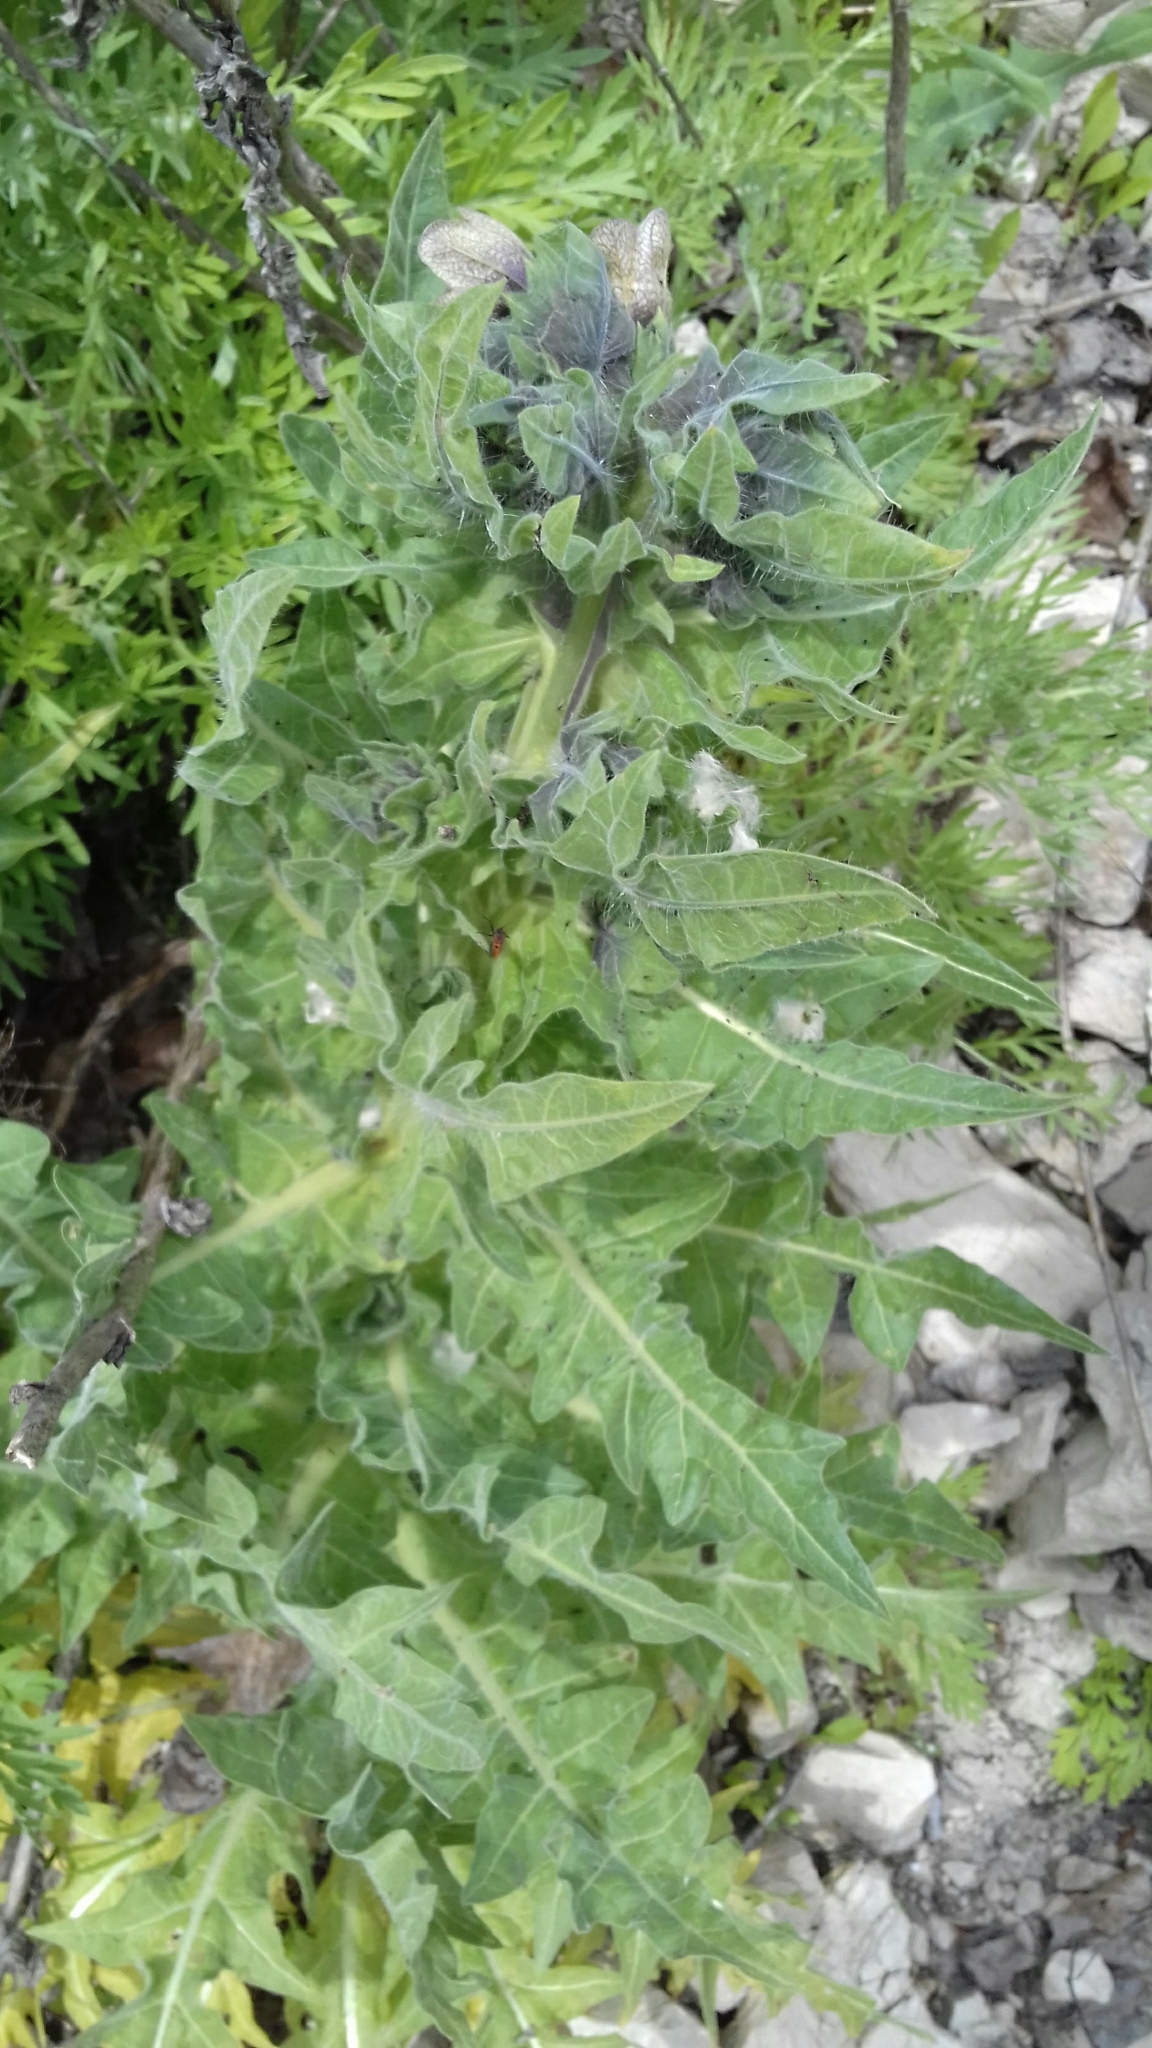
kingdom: Plantae
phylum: Tracheophyta
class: Magnoliopsida
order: Solanales
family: Solanaceae
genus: Hyoscyamus
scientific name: Hyoscyamus niger
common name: Henbane
